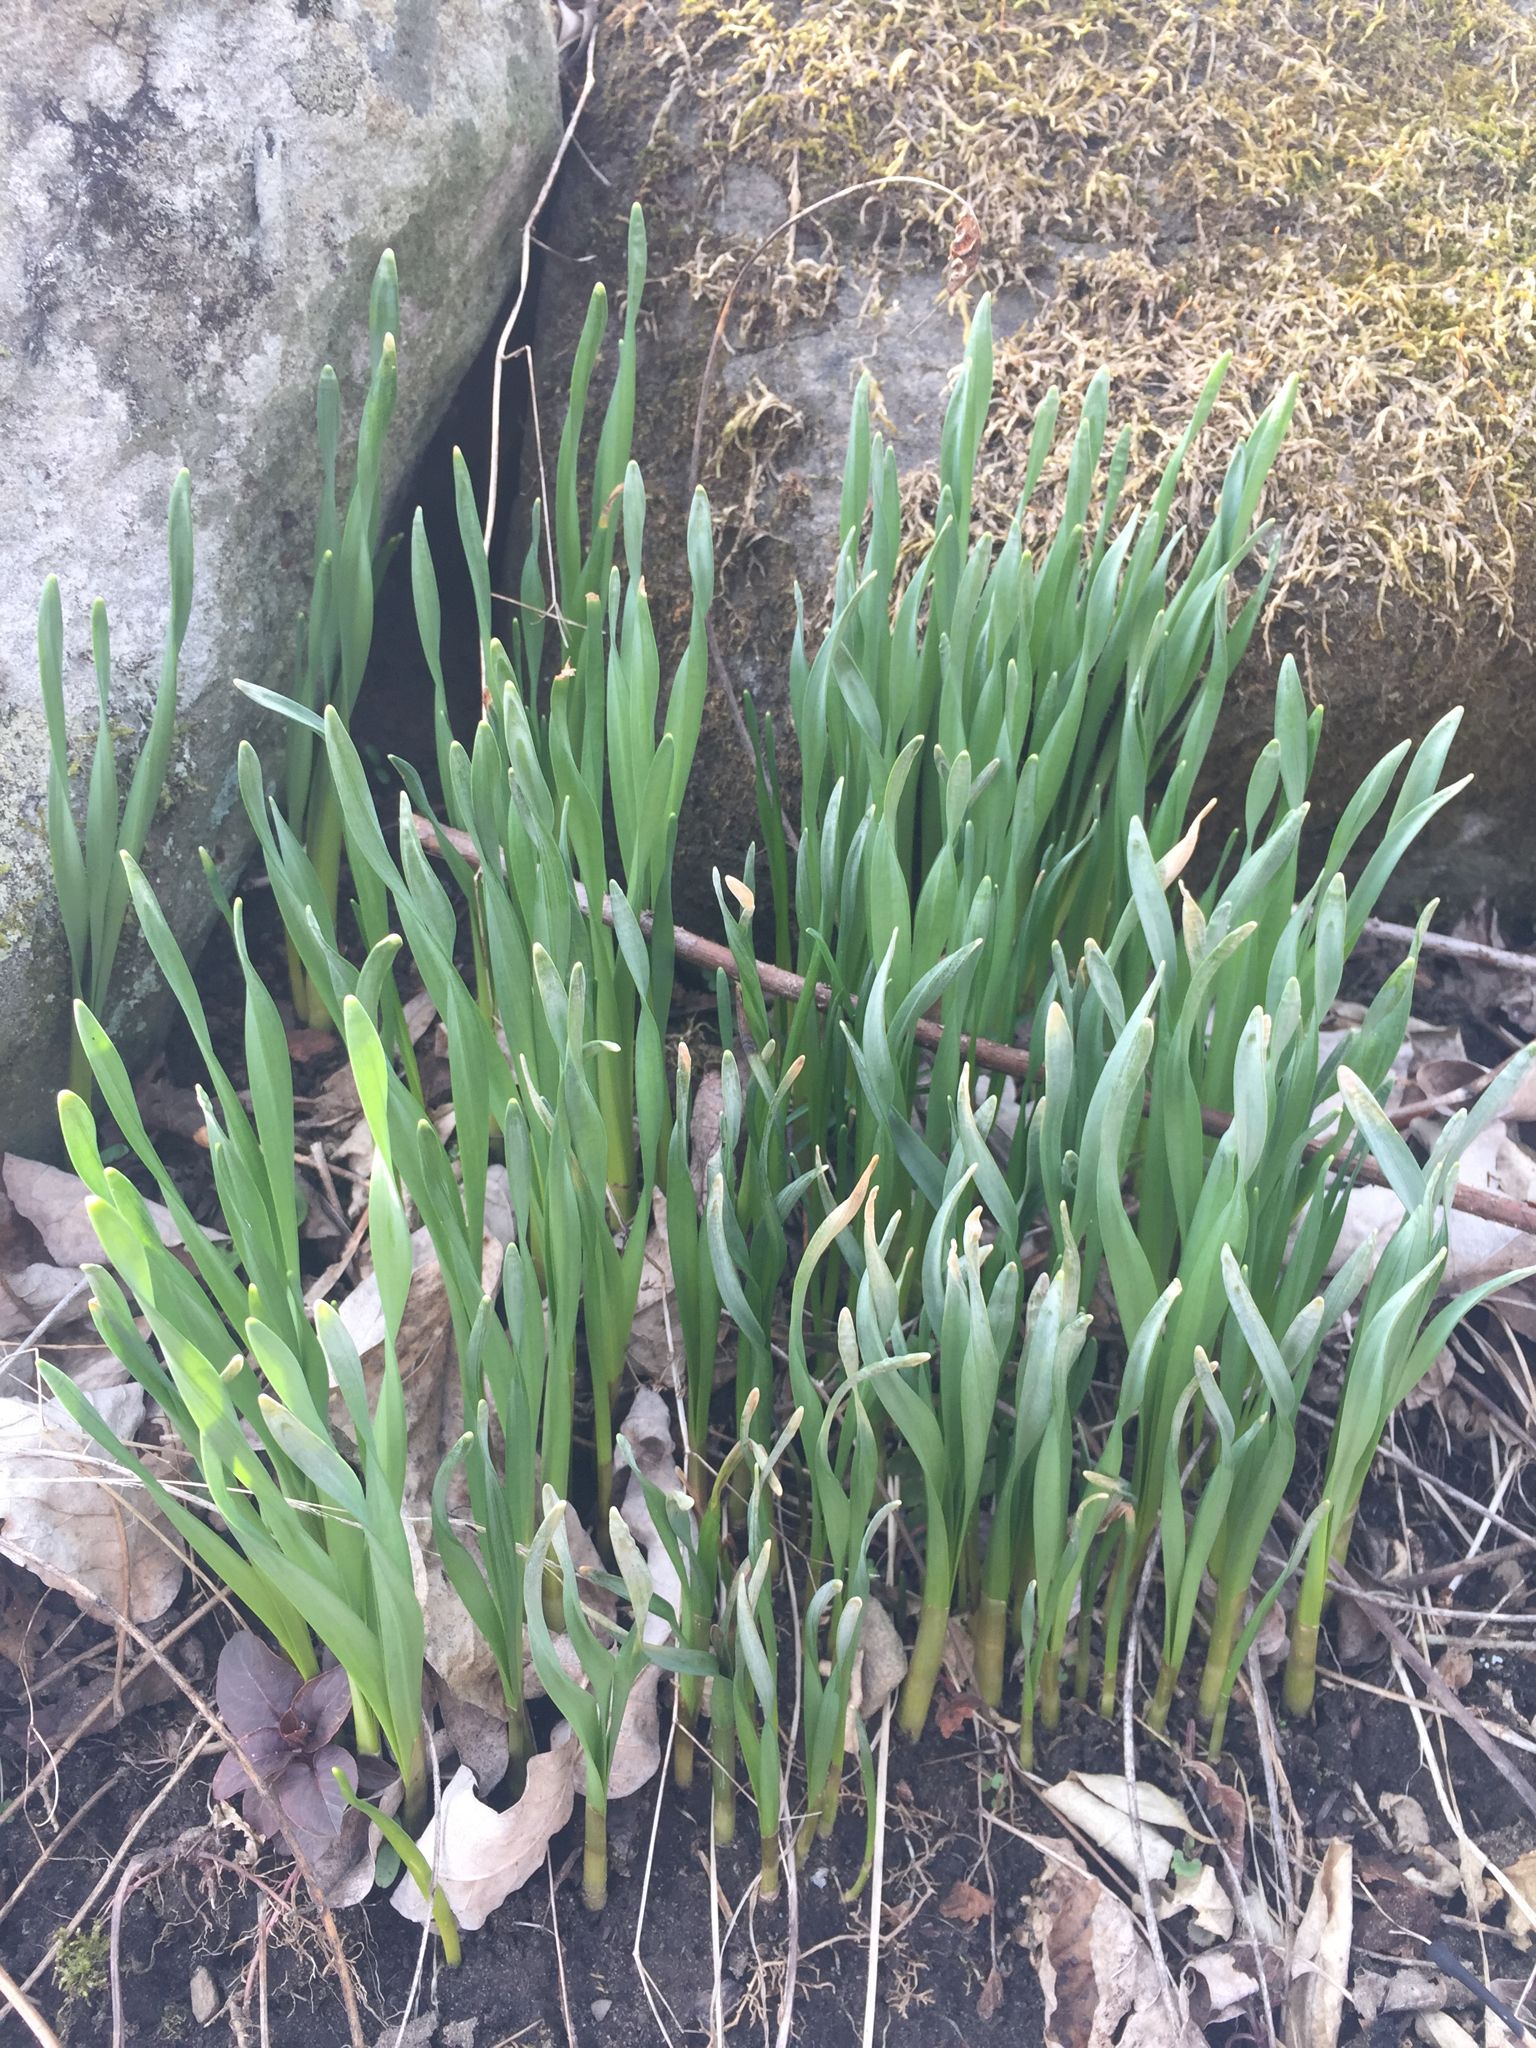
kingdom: Plantae
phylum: Tracheophyta
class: Liliopsida
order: Asparagales
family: Amaryllidaceae
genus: Narcissus
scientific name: Narcissus
